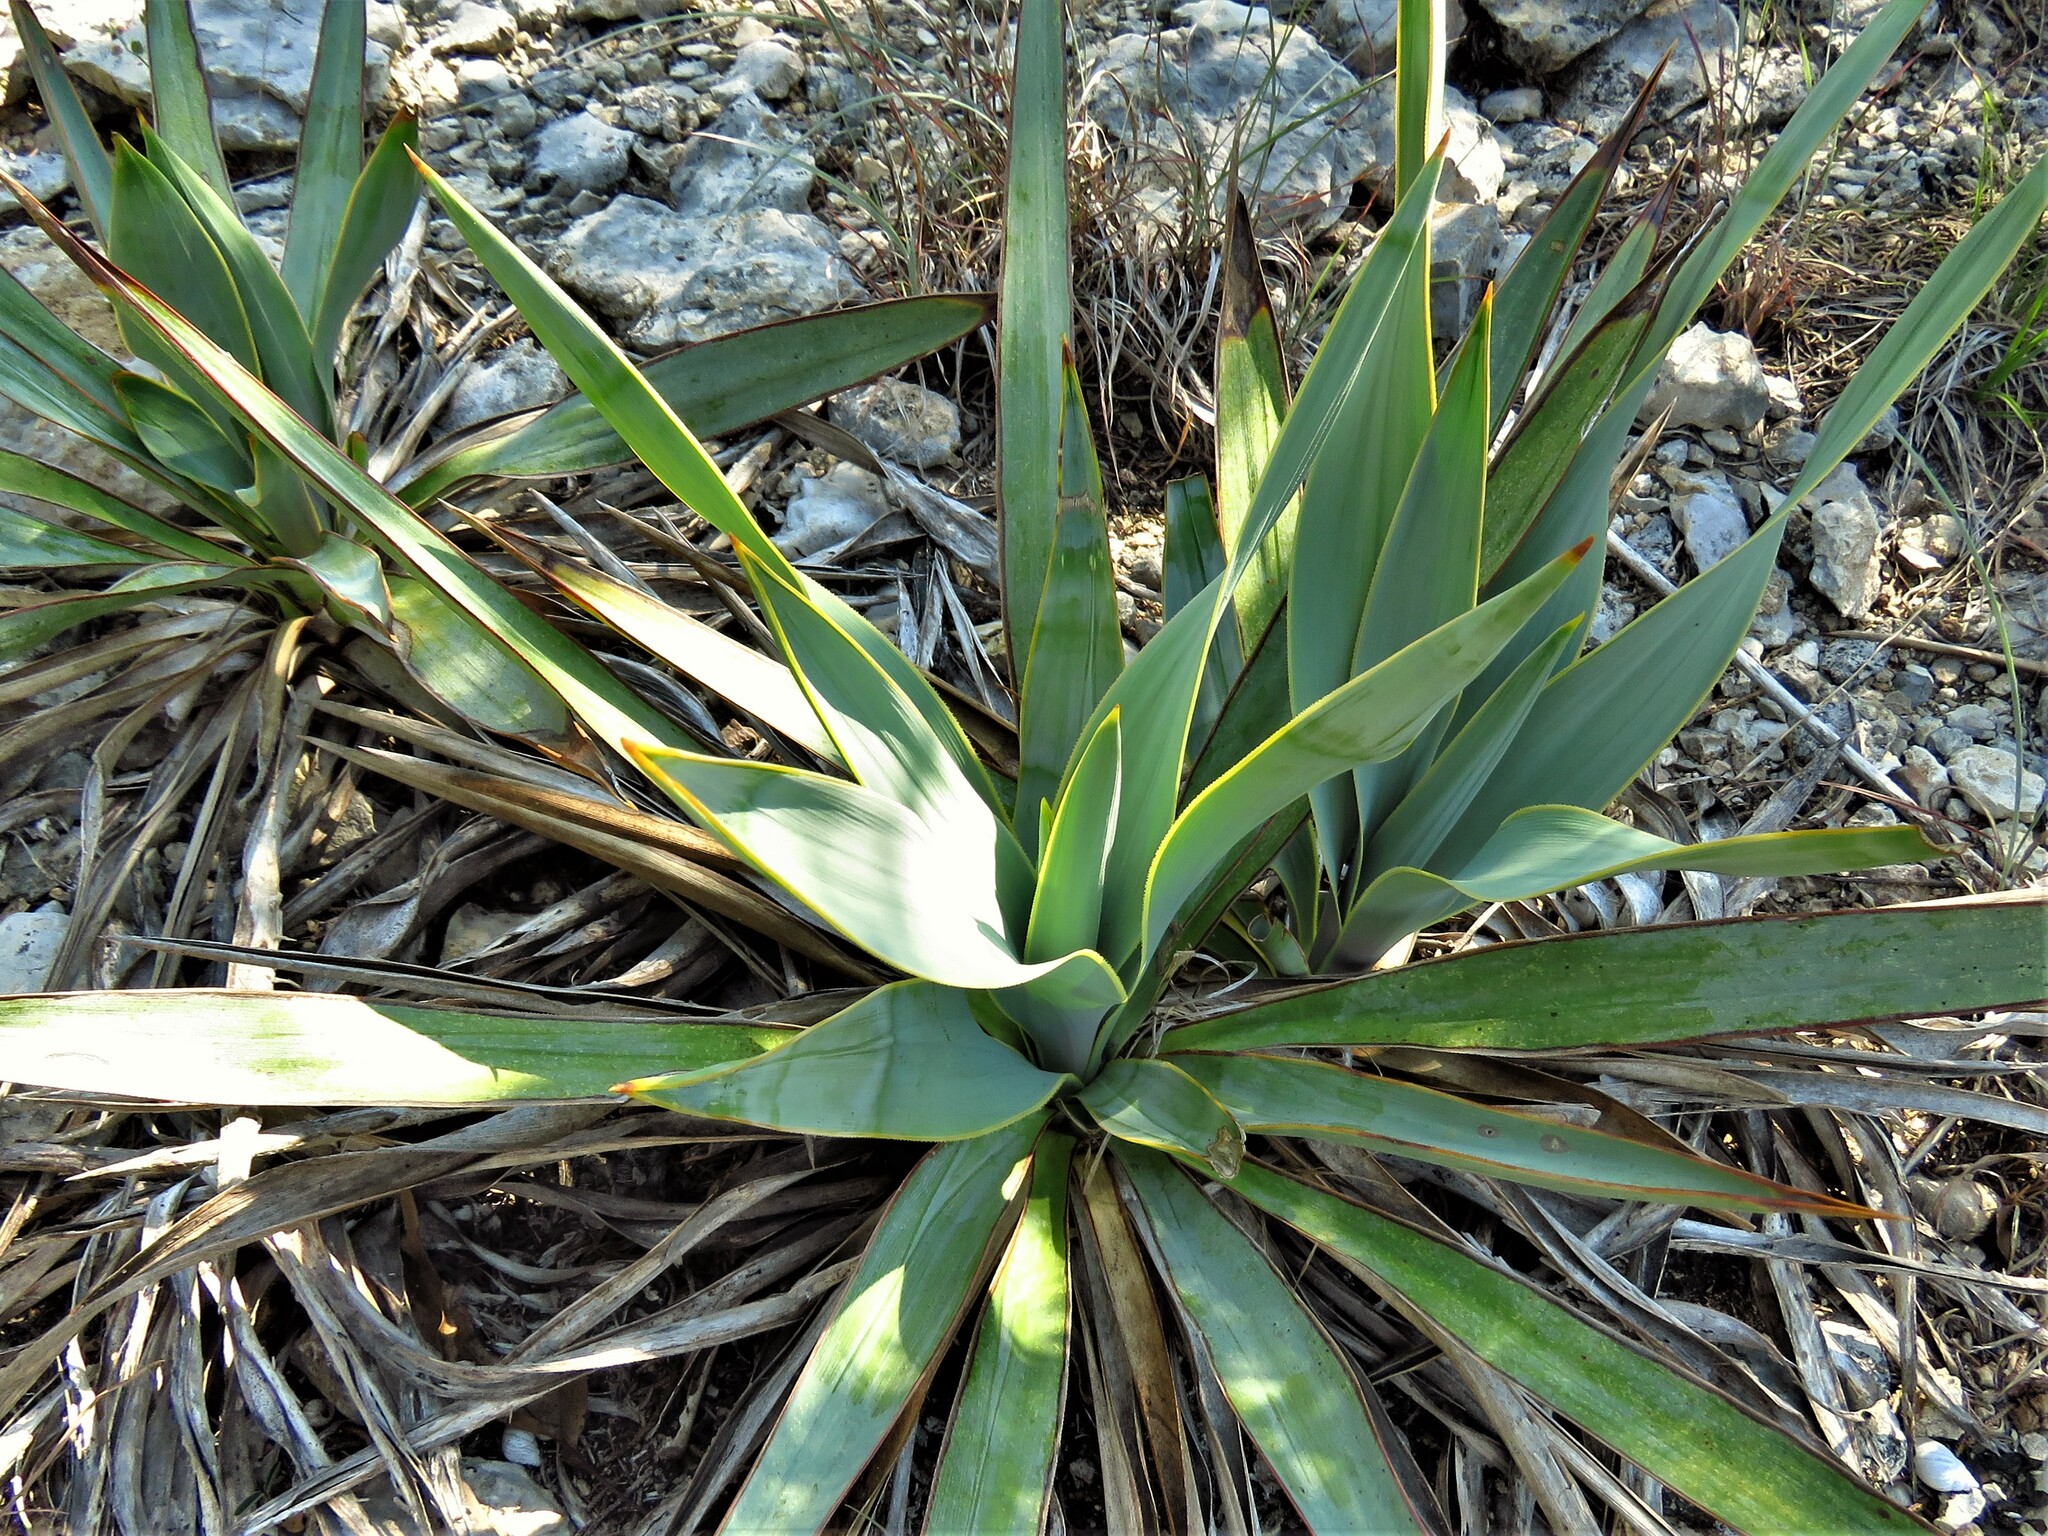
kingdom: Plantae
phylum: Tracheophyta
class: Liliopsida
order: Asparagales
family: Asparagaceae
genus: Yucca
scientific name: Yucca rupicola
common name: Twisted-leaf spanish-dagger
